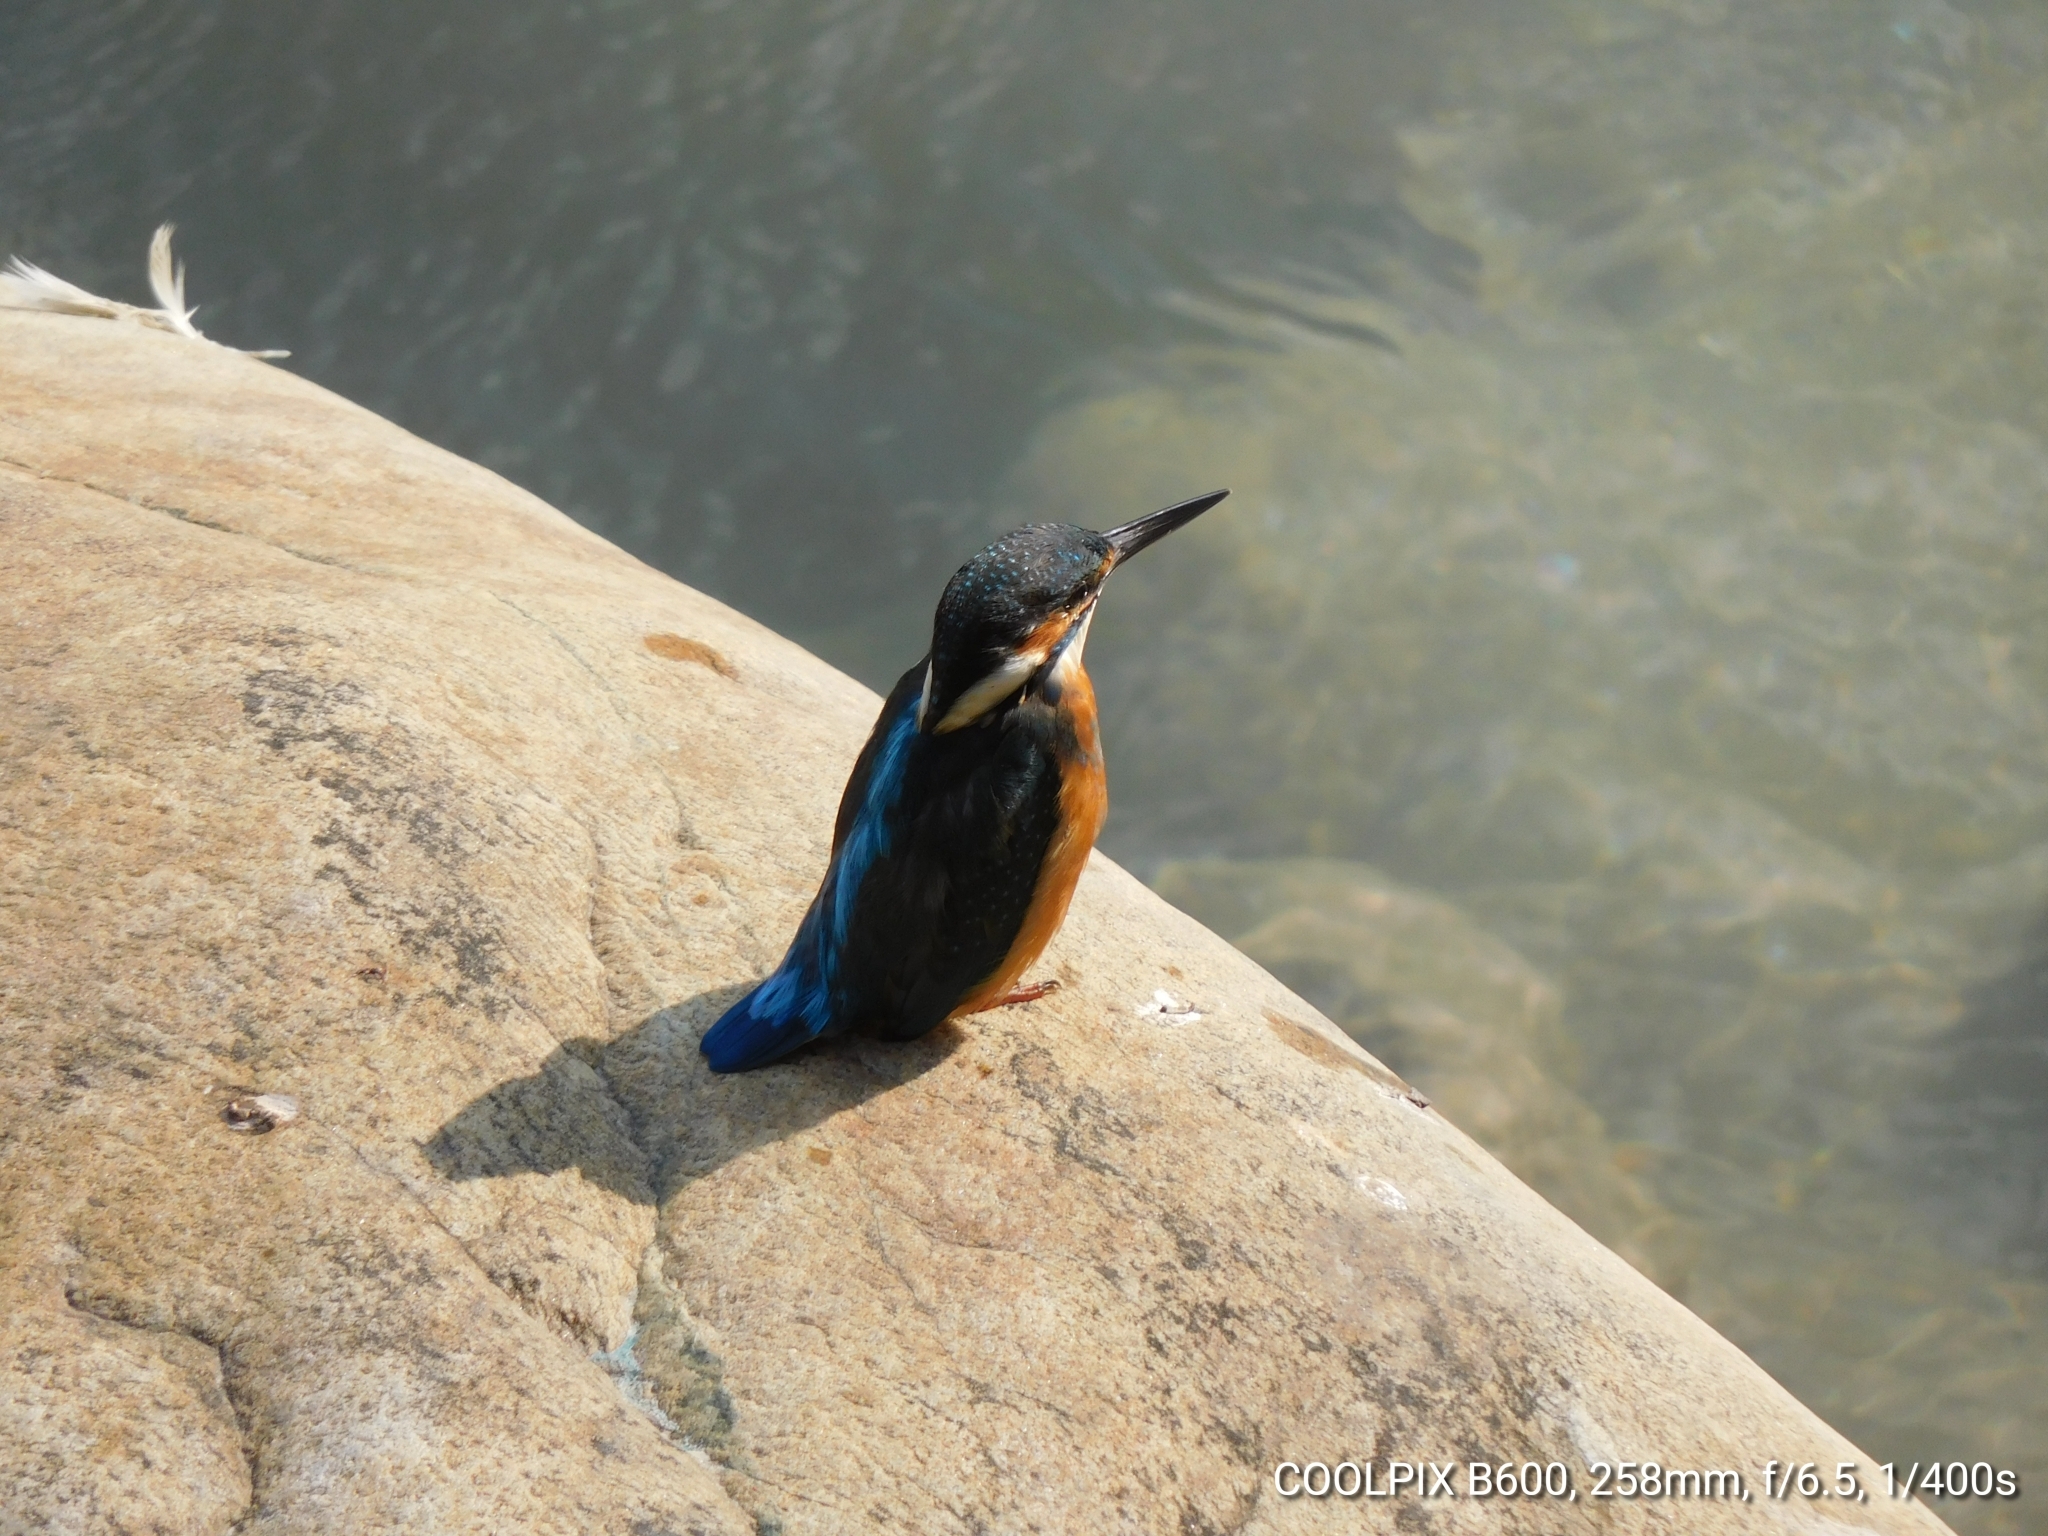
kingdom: Animalia
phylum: Chordata
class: Aves
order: Coraciiformes
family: Alcedinidae
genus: Alcedo
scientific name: Alcedo atthis
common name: Common kingfisher
